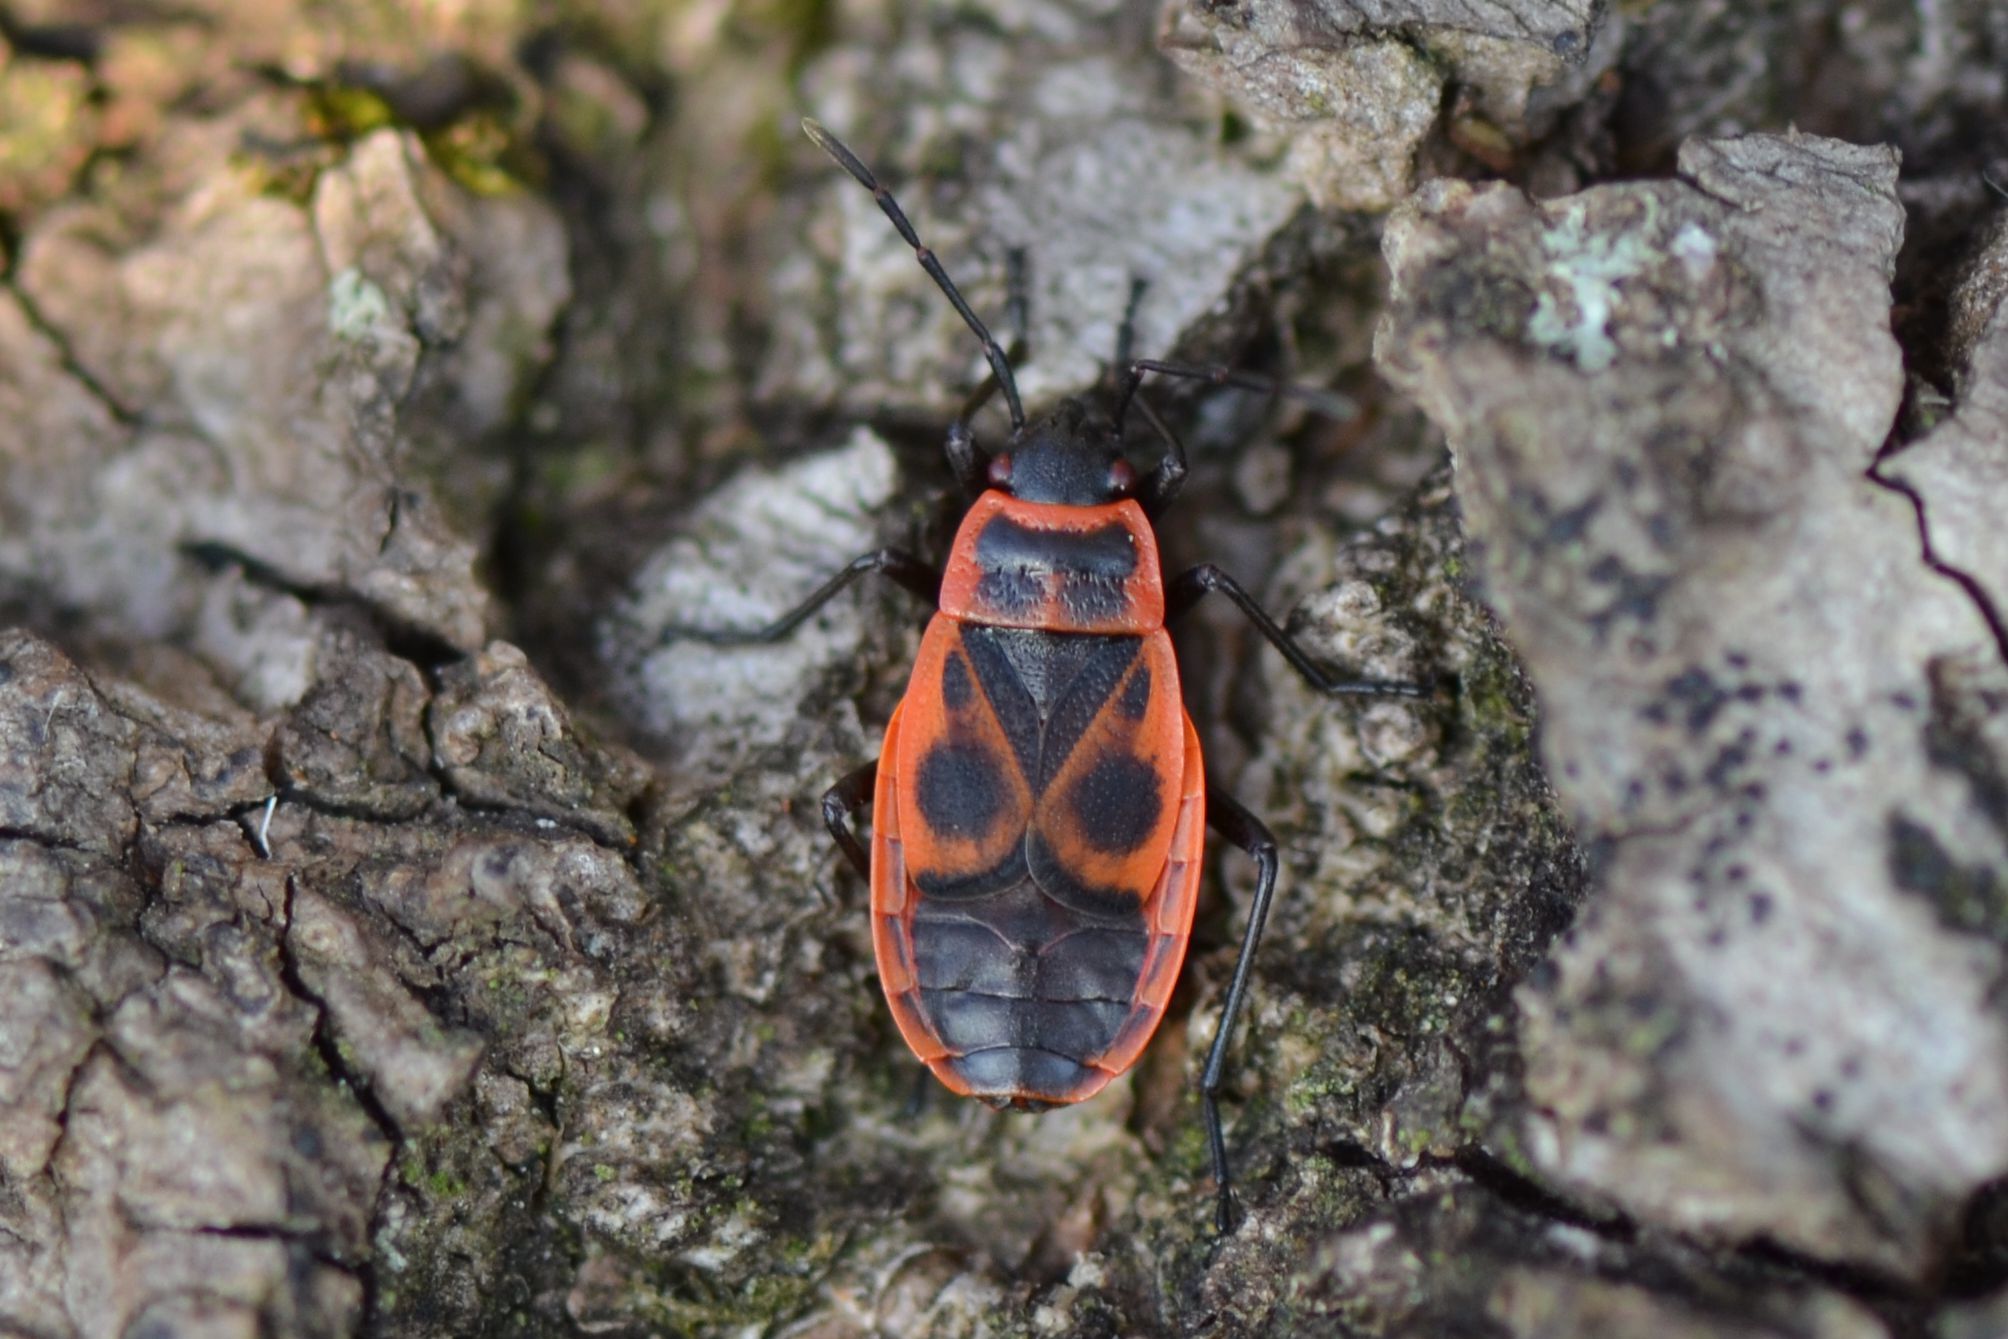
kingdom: Animalia
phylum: Arthropoda
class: Insecta
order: Hemiptera
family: Pyrrhocoridae
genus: Pyrrhocoris
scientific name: Pyrrhocoris apterus
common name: Firebug
